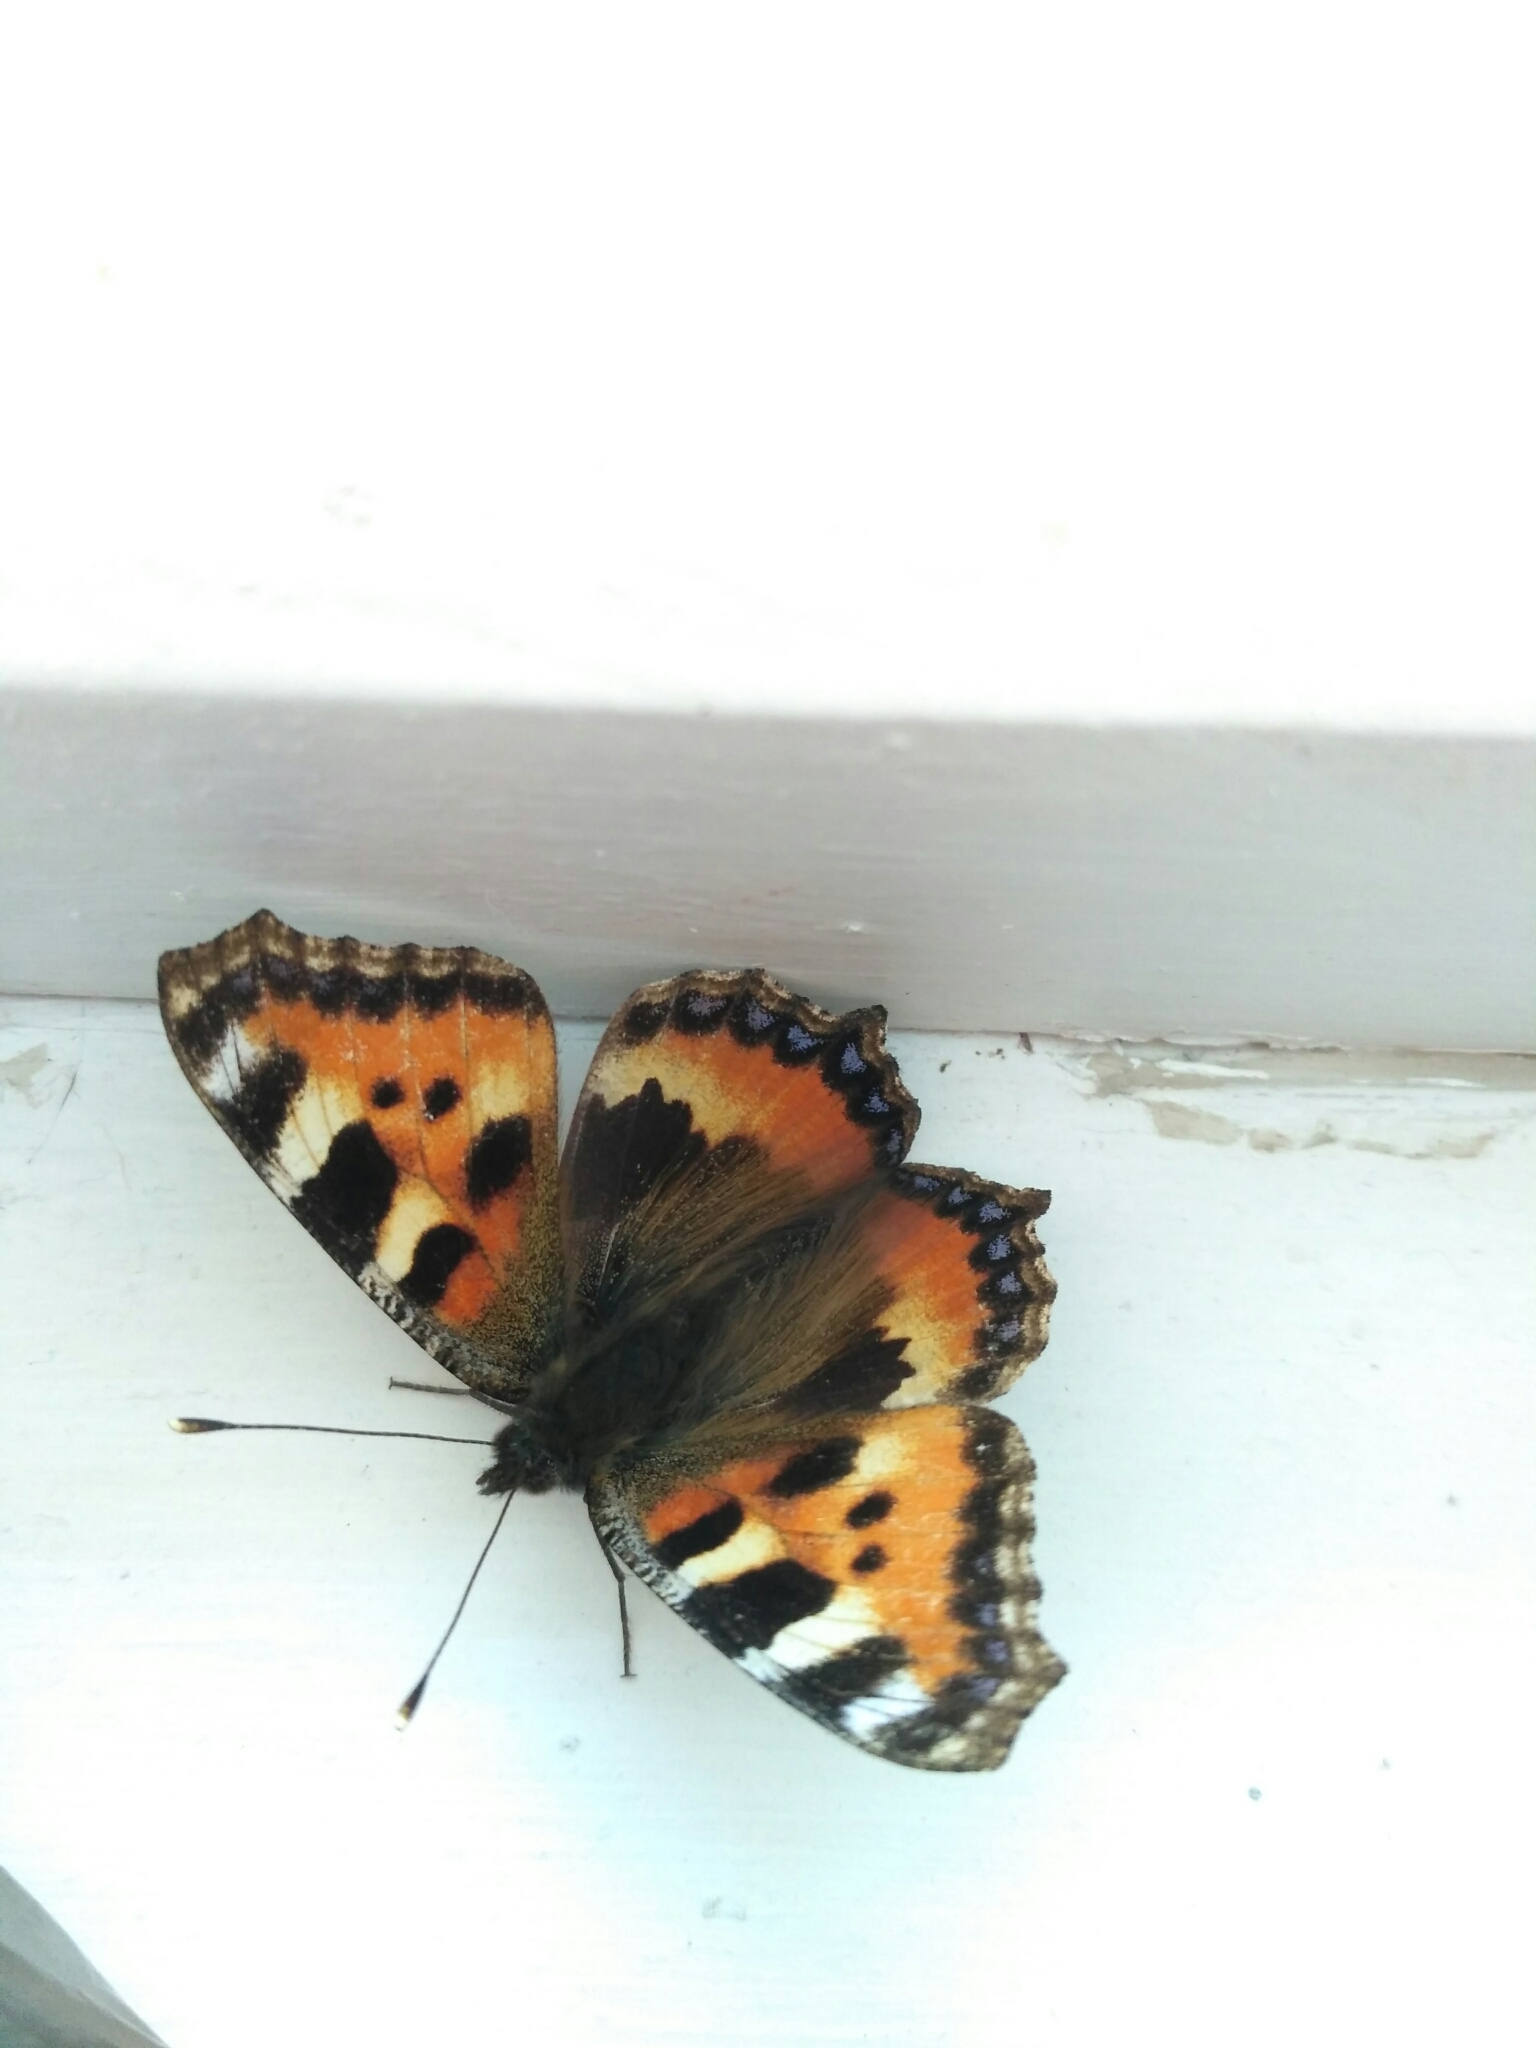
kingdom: Animalia
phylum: Arthropoda
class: Insecta
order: Lepidoptera
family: Nymphalidae
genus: Aglais
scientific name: Aglais urticae
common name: Small tortoiseshell
